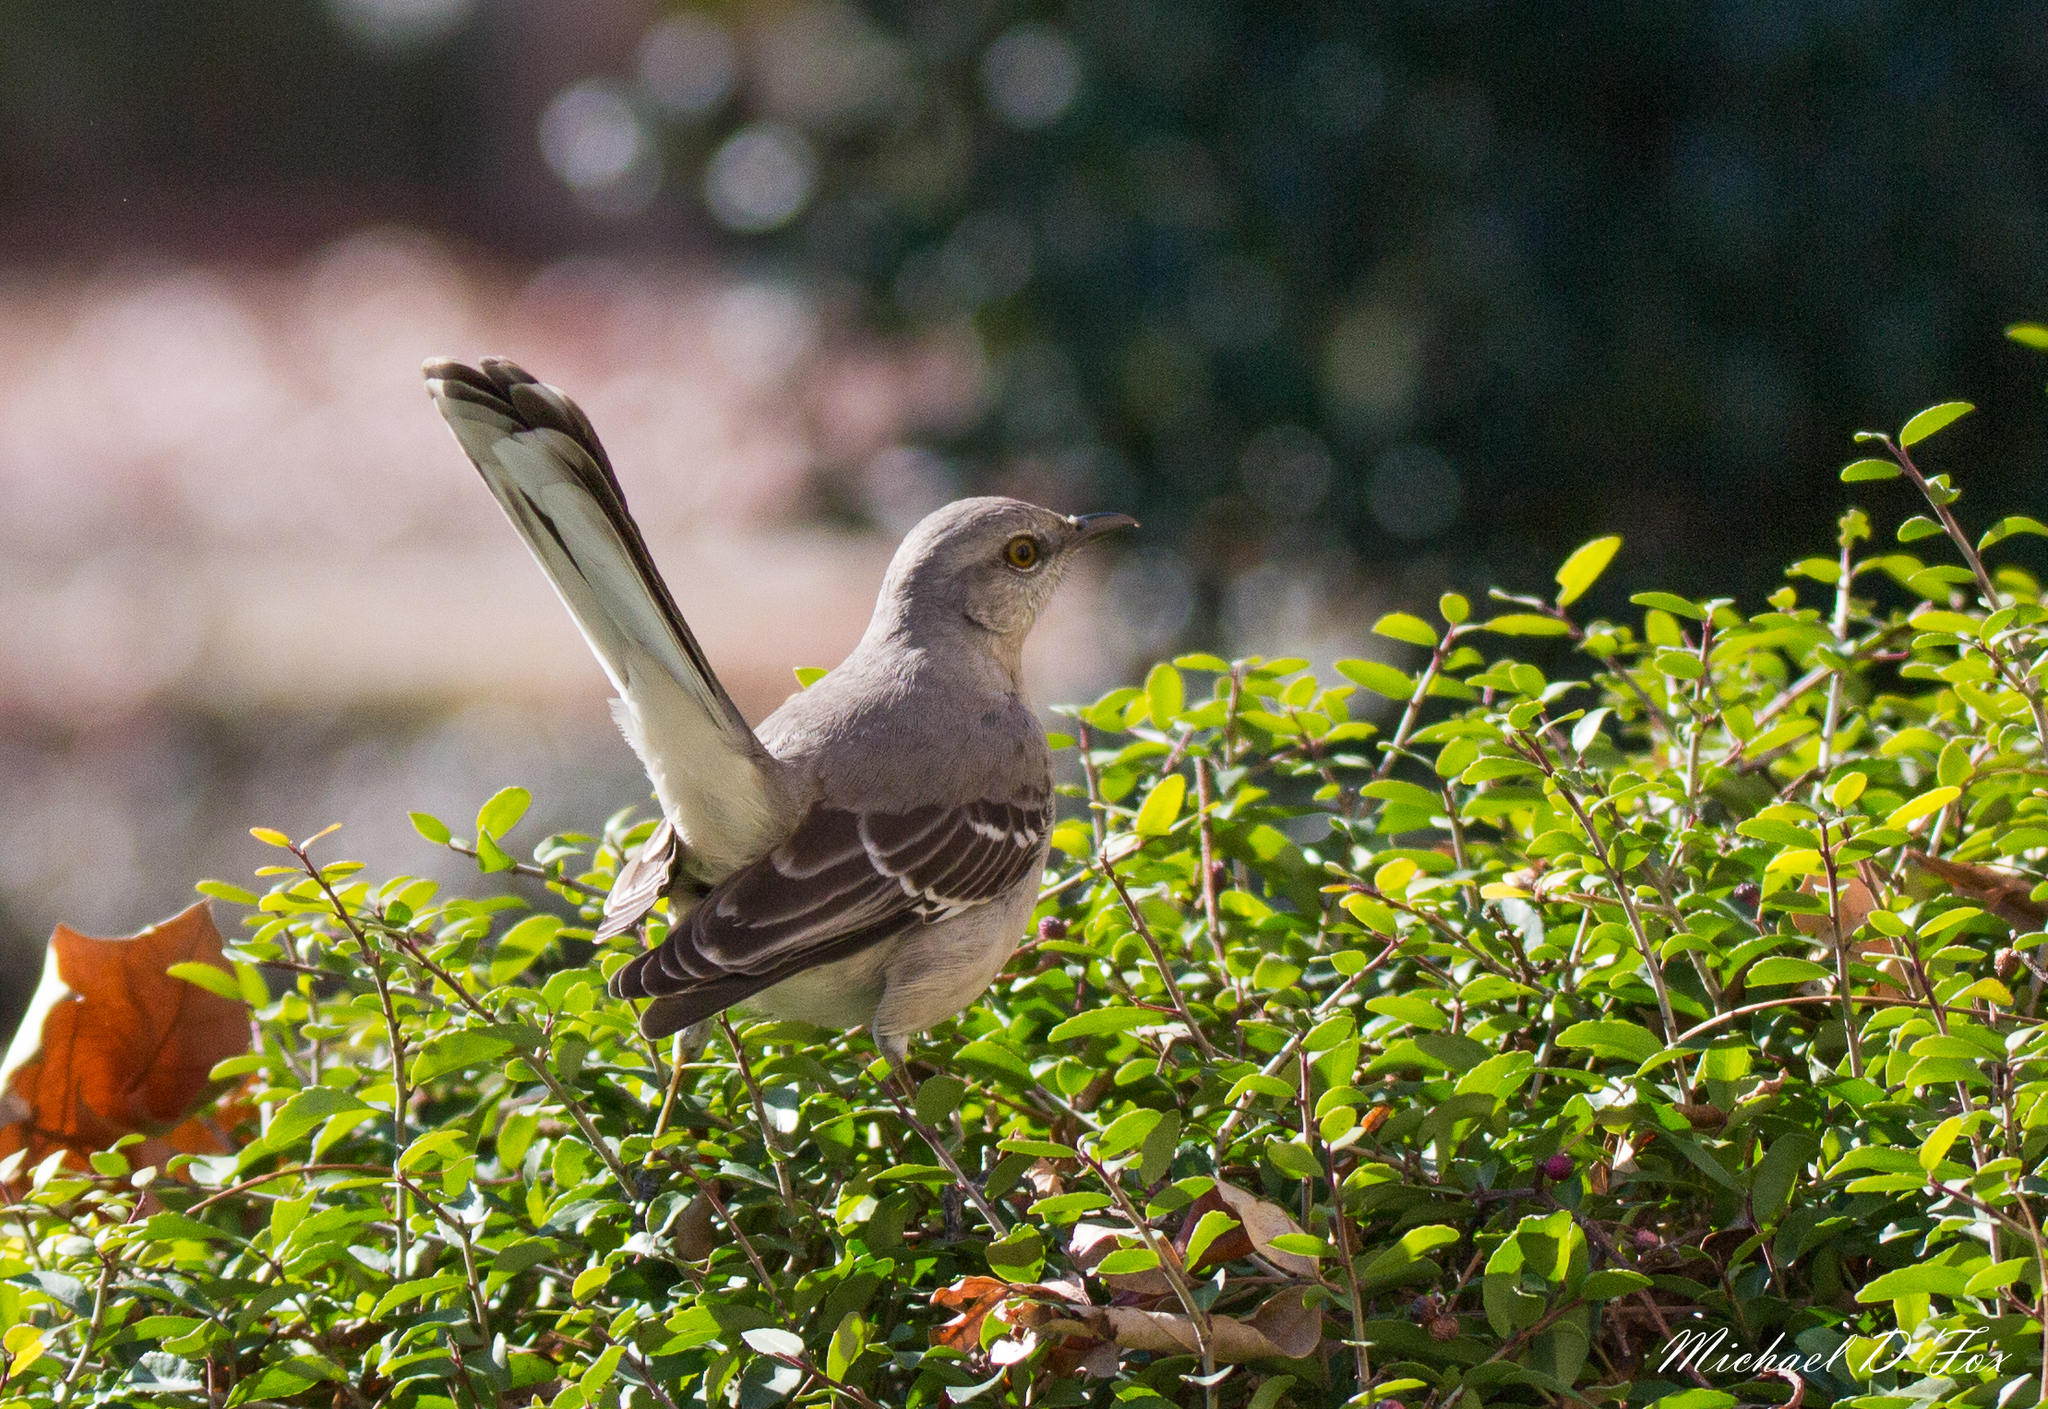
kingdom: Animalia
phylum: Chordata
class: Aves
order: Passeriformes
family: Mimidae
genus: Mimus
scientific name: Mimus polyglottos
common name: Northern mockingbird
